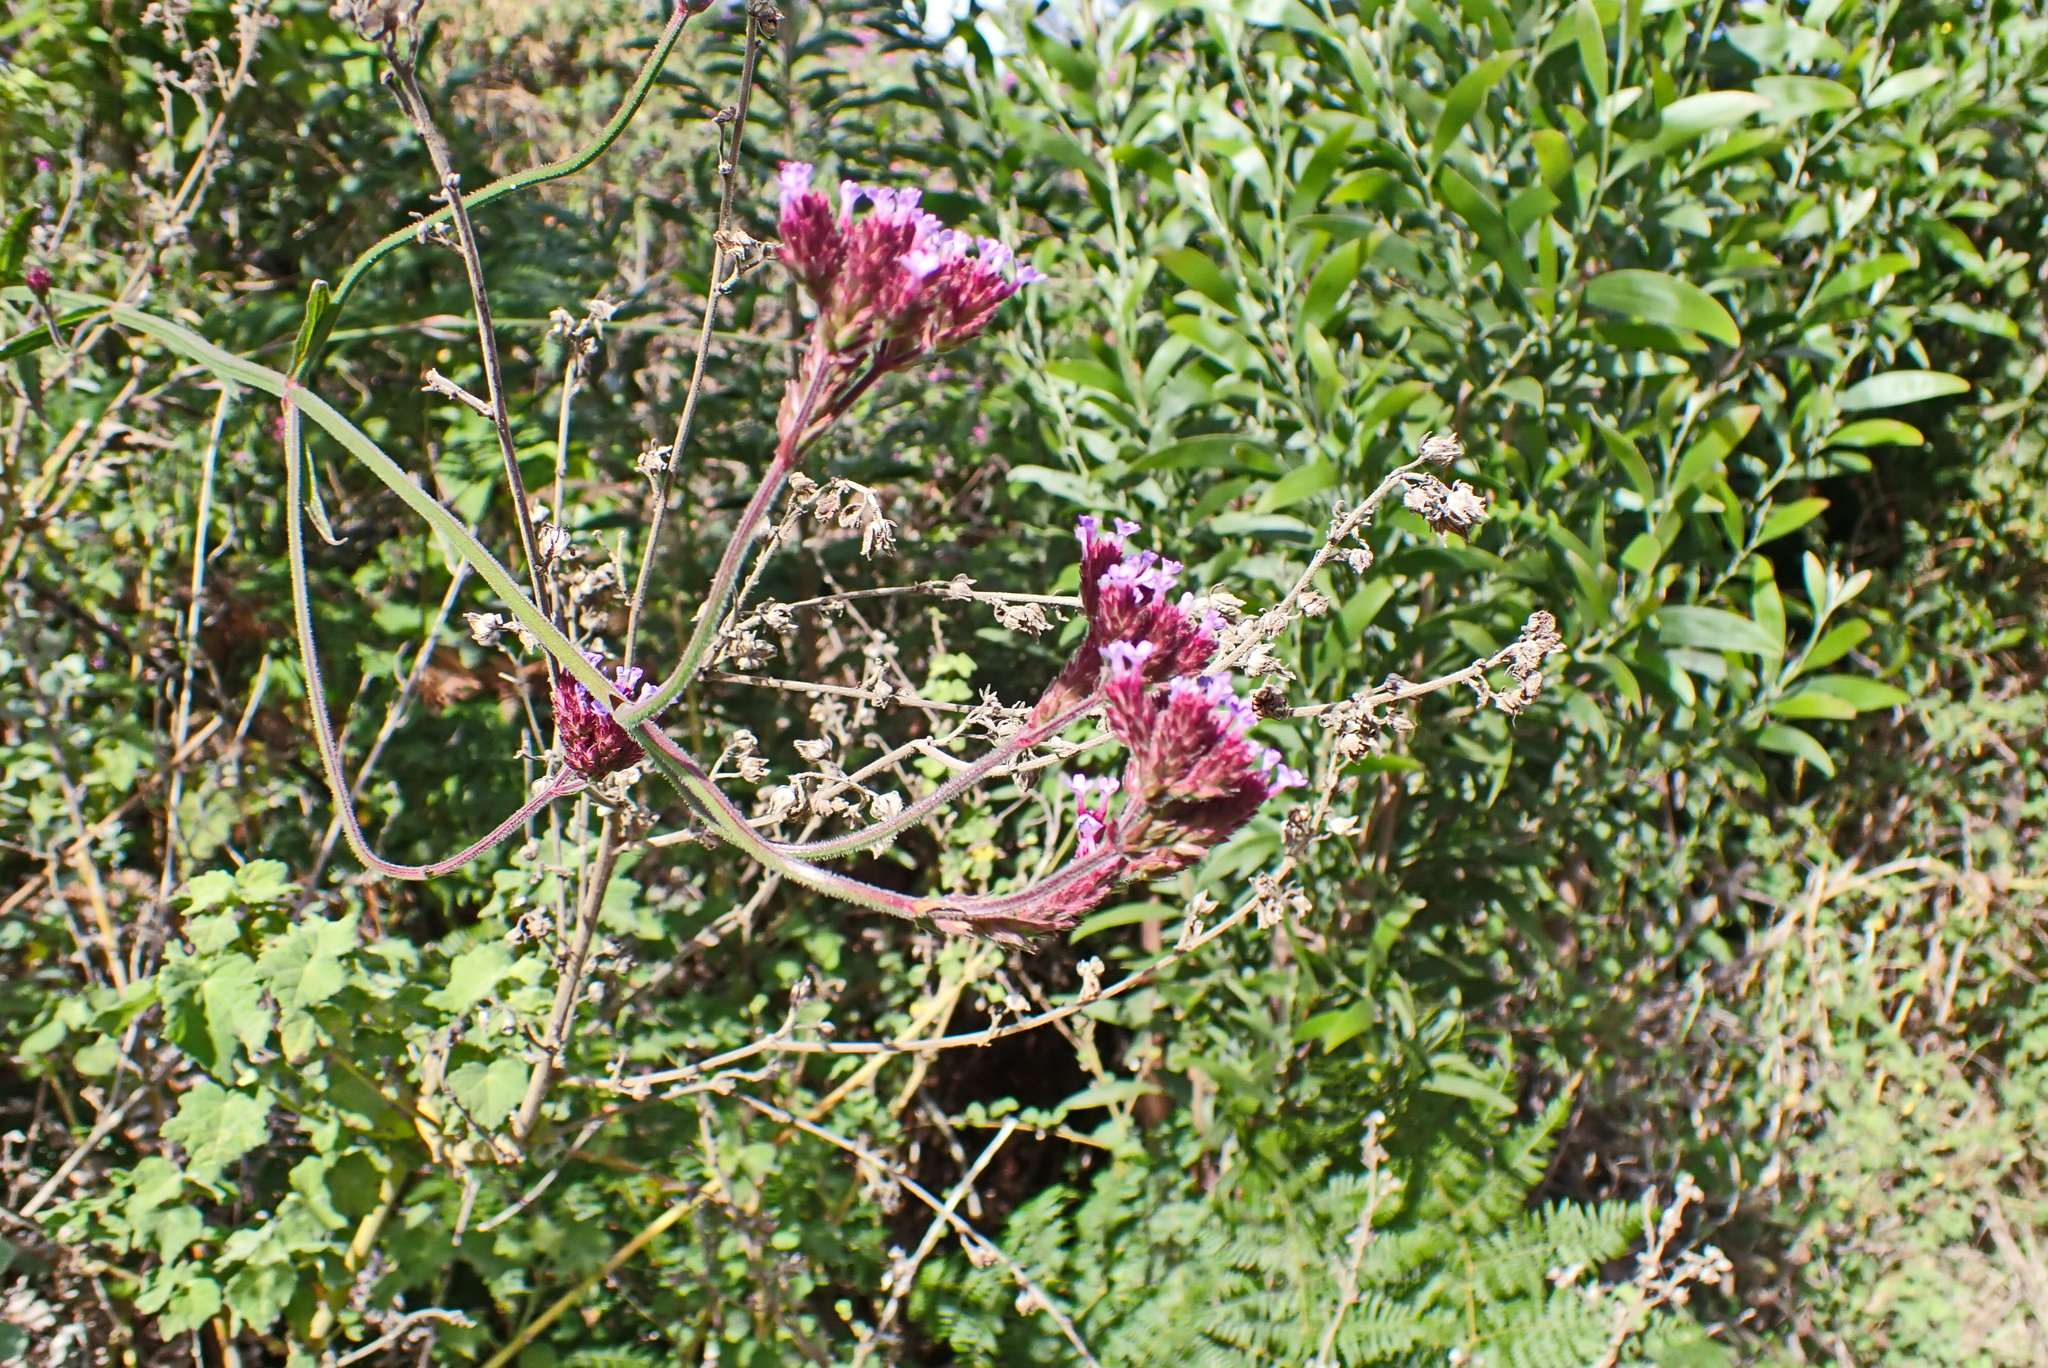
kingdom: Plantae
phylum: Tracheophyta
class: Magnoliopsida
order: Lamiales
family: Verbenaceae
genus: Verbena
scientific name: Verbena bonariensis
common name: Purpletop vervain
